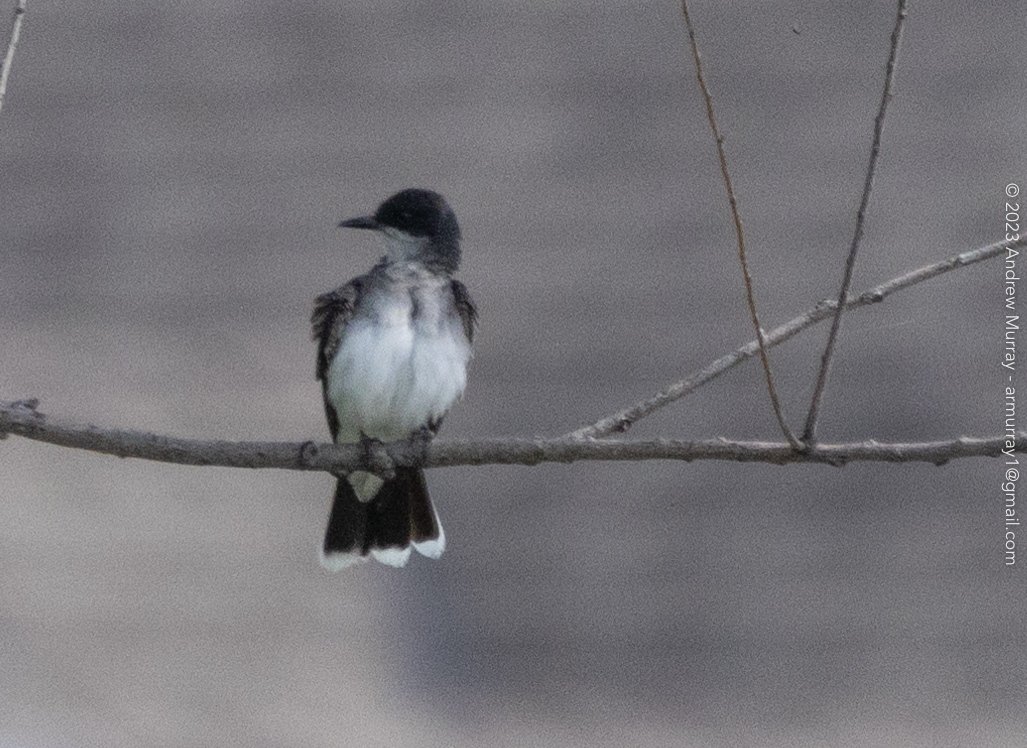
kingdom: Animalia
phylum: Chordata
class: Aves
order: Passeriformes
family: Tyrannidae
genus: Tyrannus
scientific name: Tyrannus tyrannus
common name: Eastern kingbird
